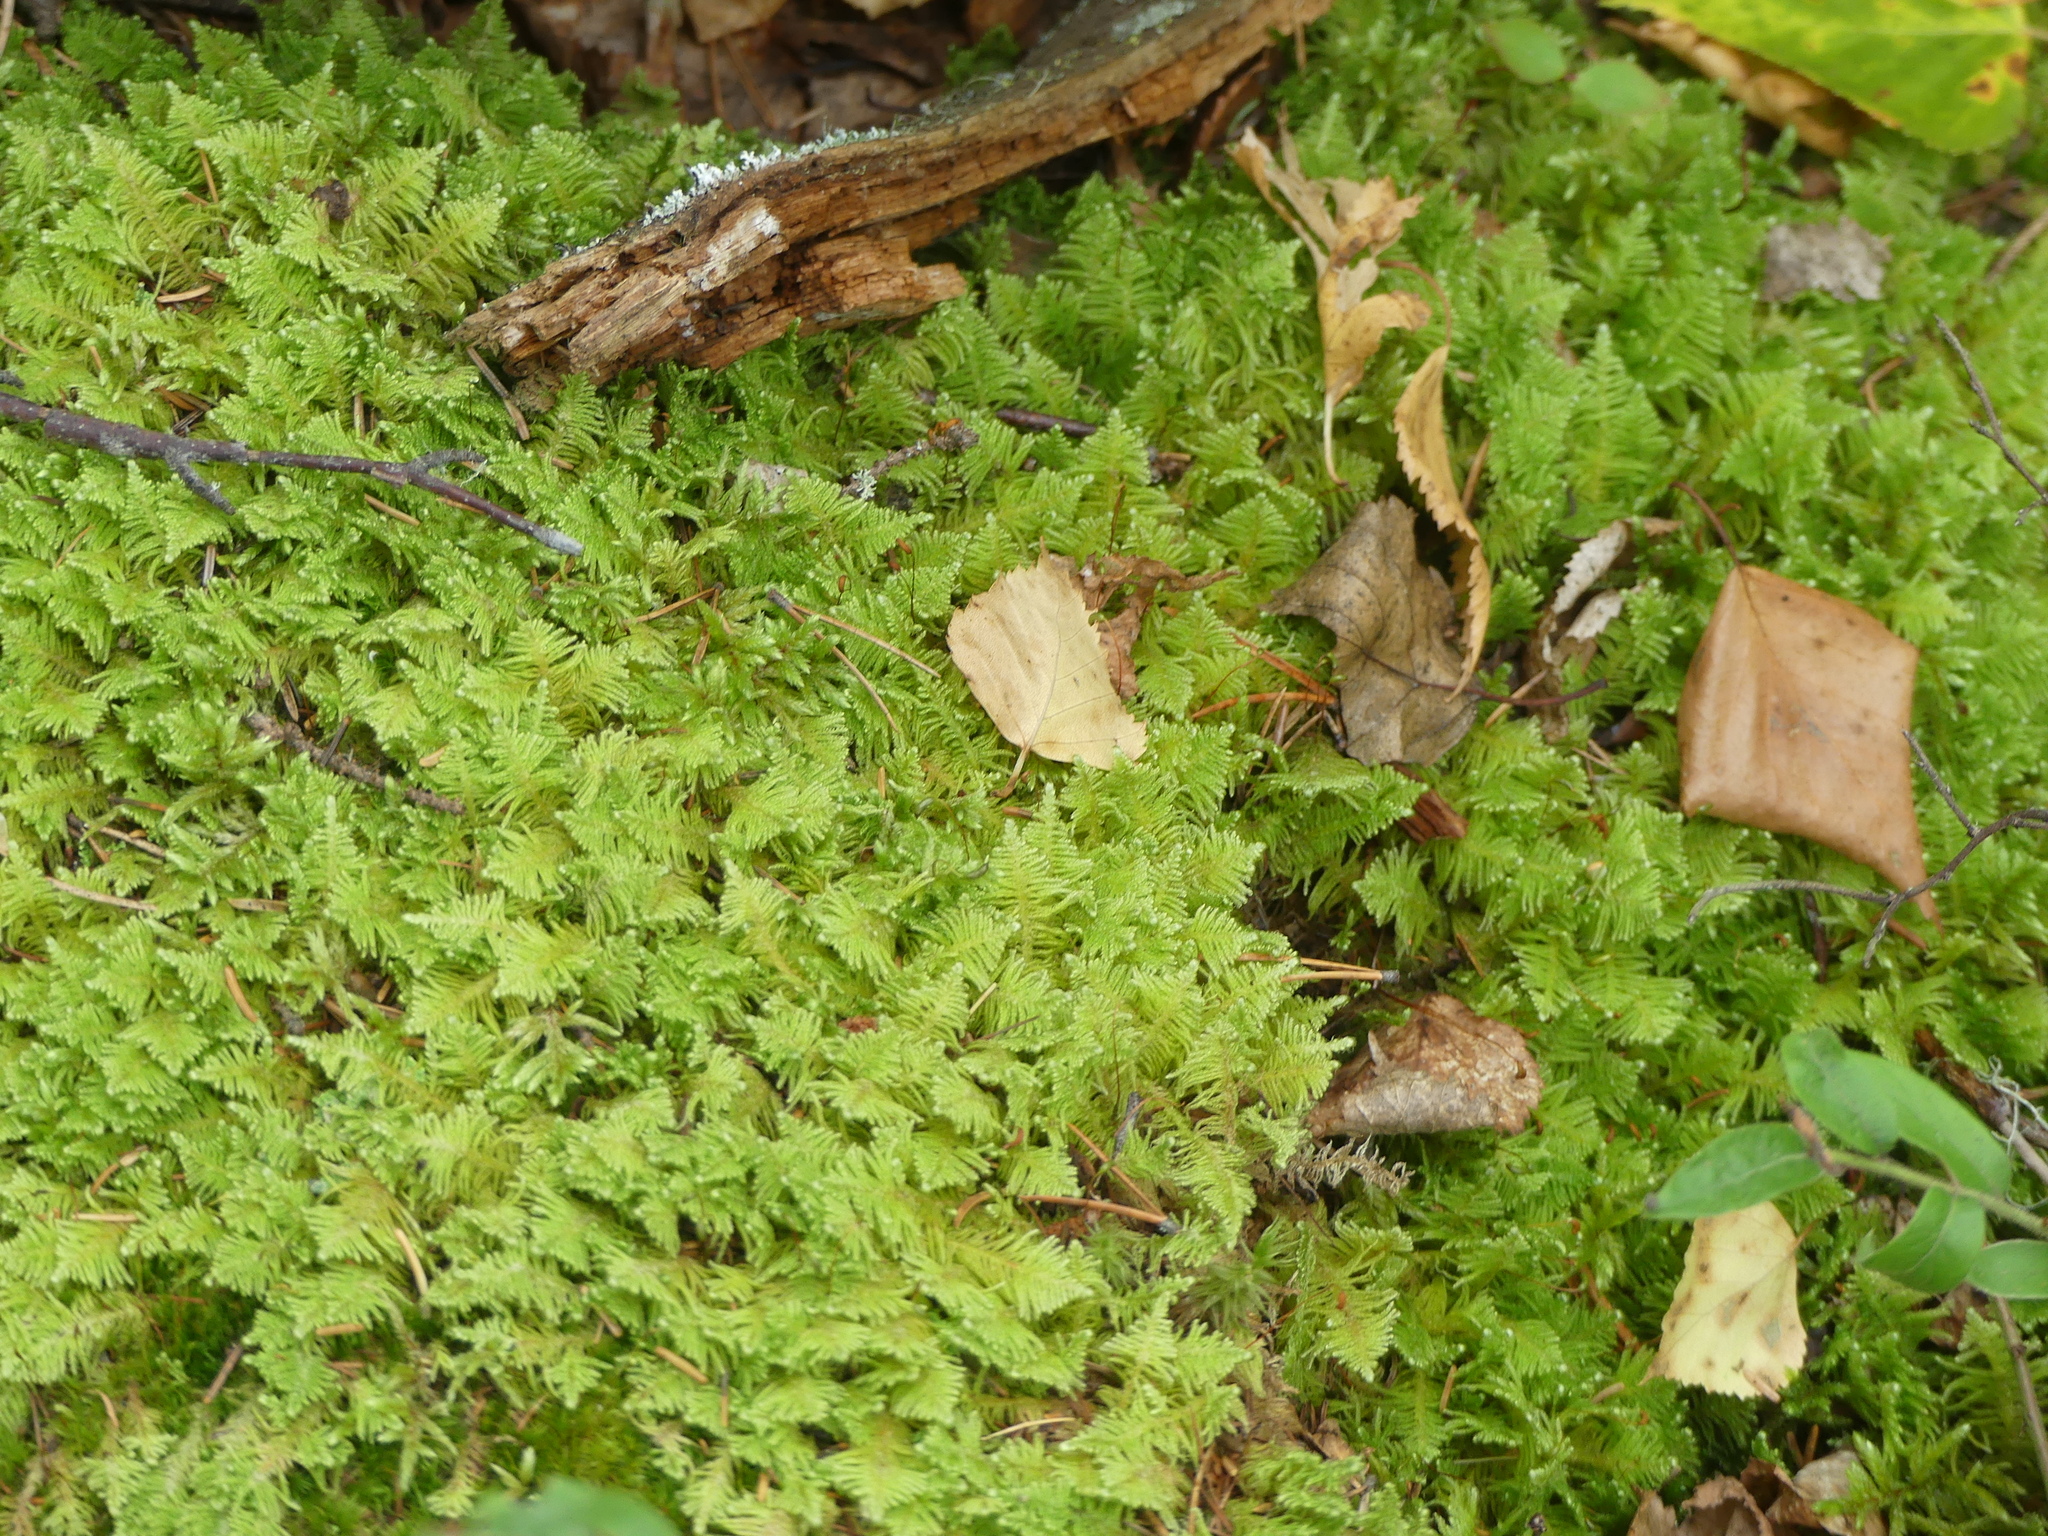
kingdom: Plantae
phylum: Bryophyta
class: Bryopsida
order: Hypnales
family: Pylaisiaceae
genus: Ptilium
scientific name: Ptilium crista-castrensis
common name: Knight's plume moss
